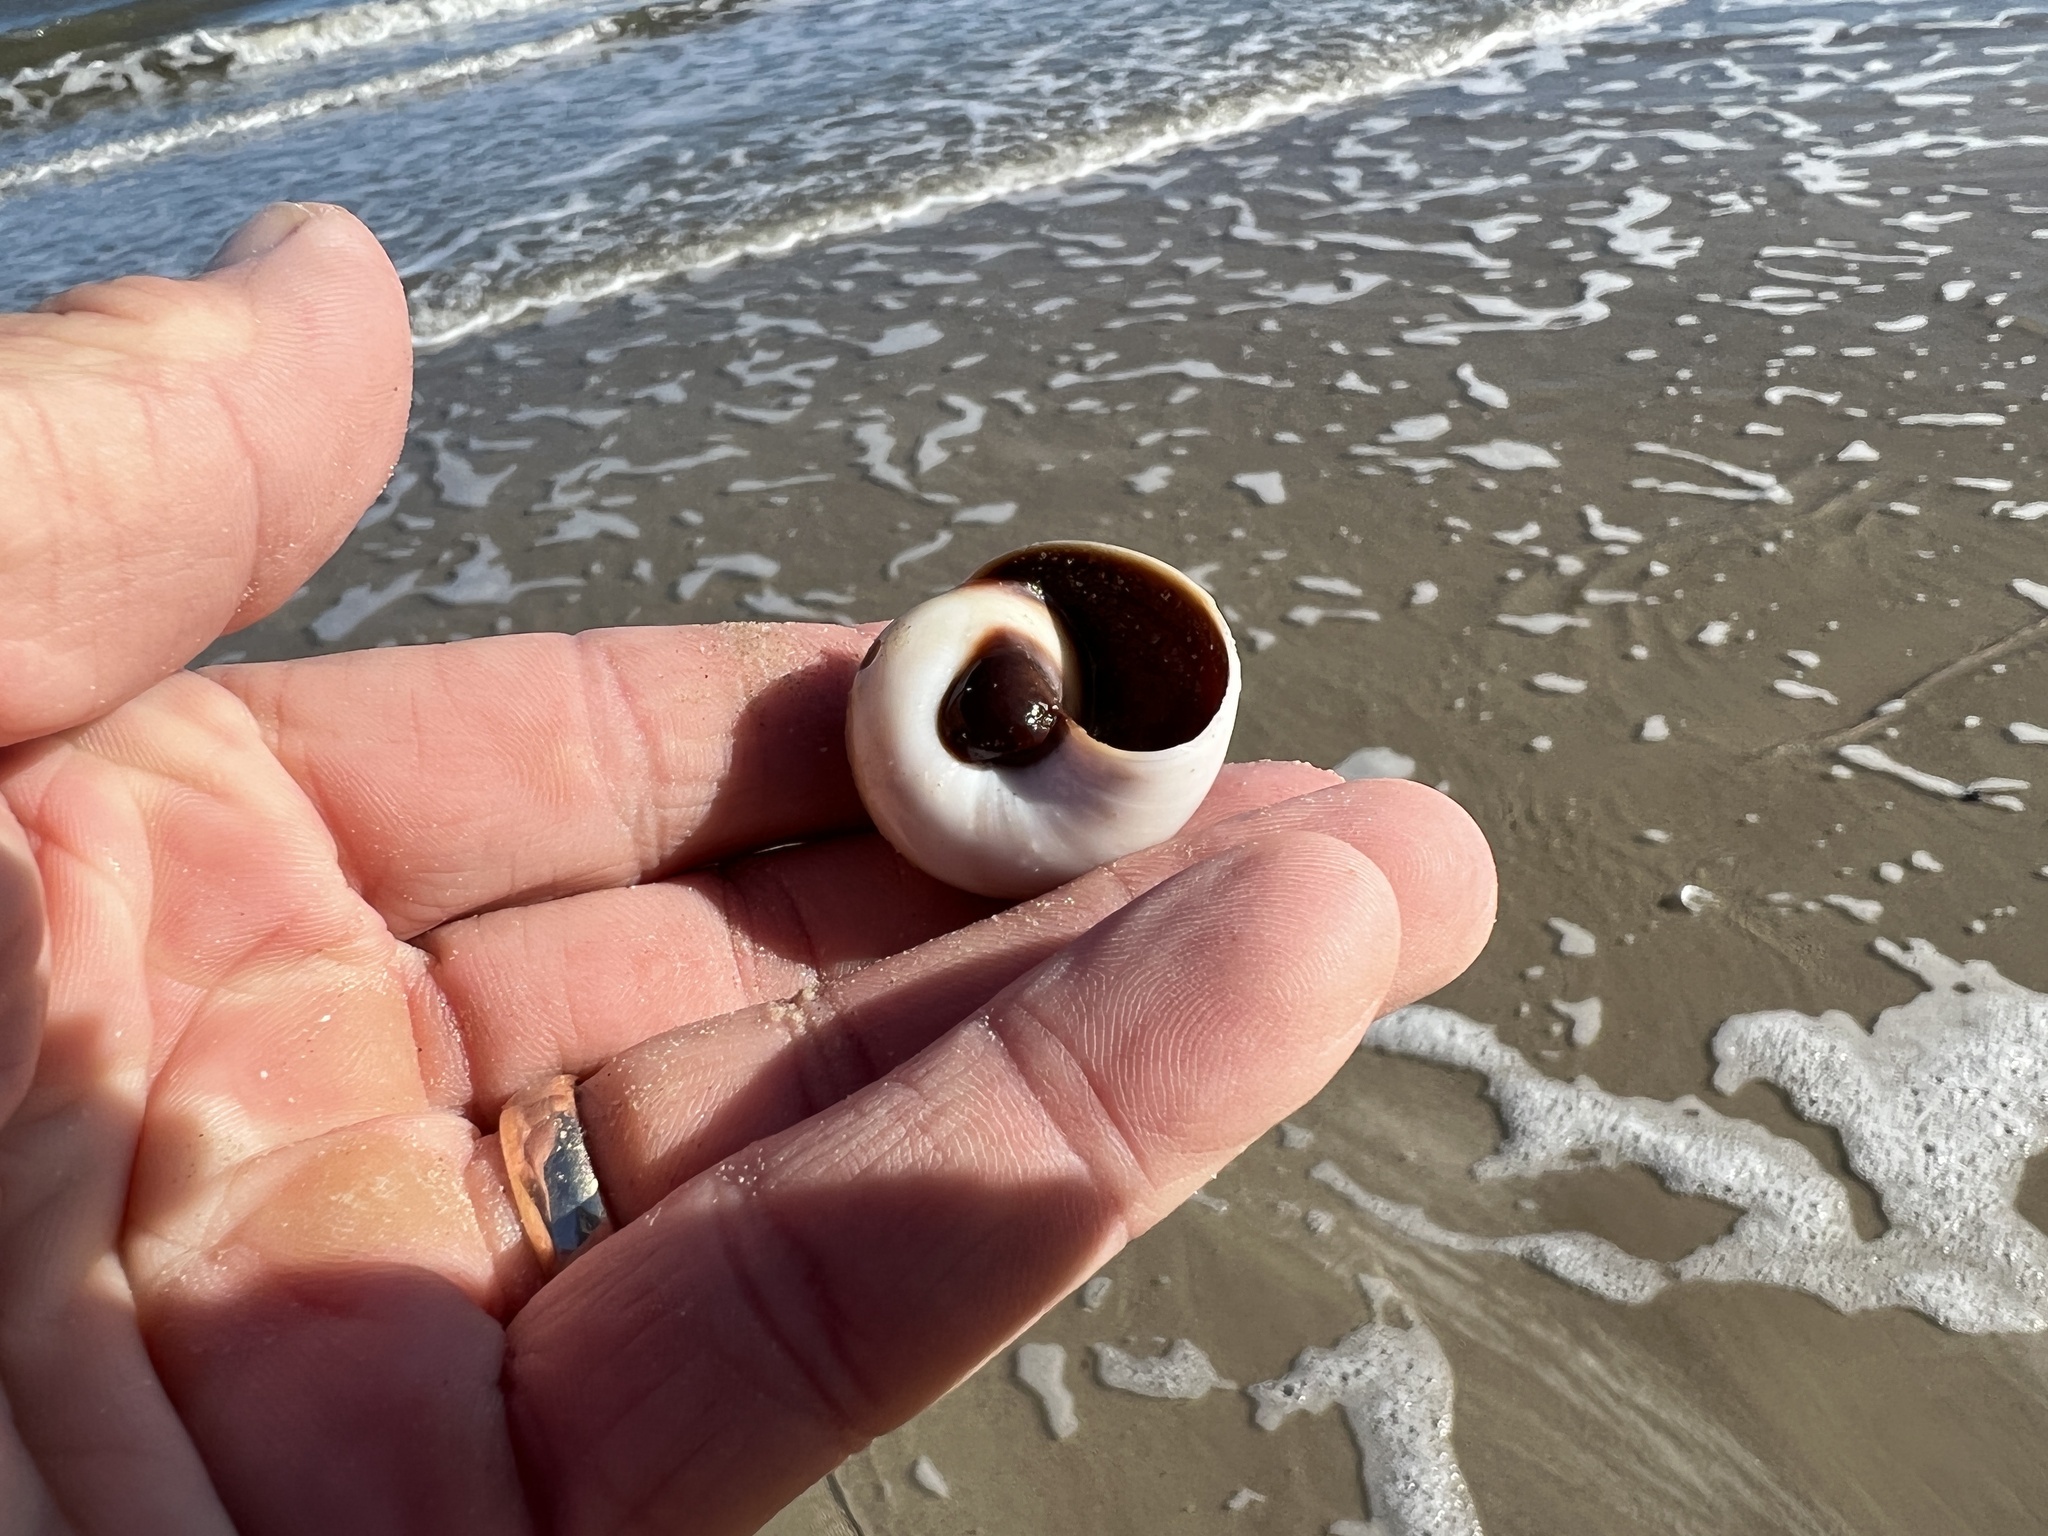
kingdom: Animalia
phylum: Mollusca
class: Gastropoda
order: Littorinimorpha
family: Naticidae
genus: Neverita
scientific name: Neverita duplicata
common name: Lobed moonsnail
